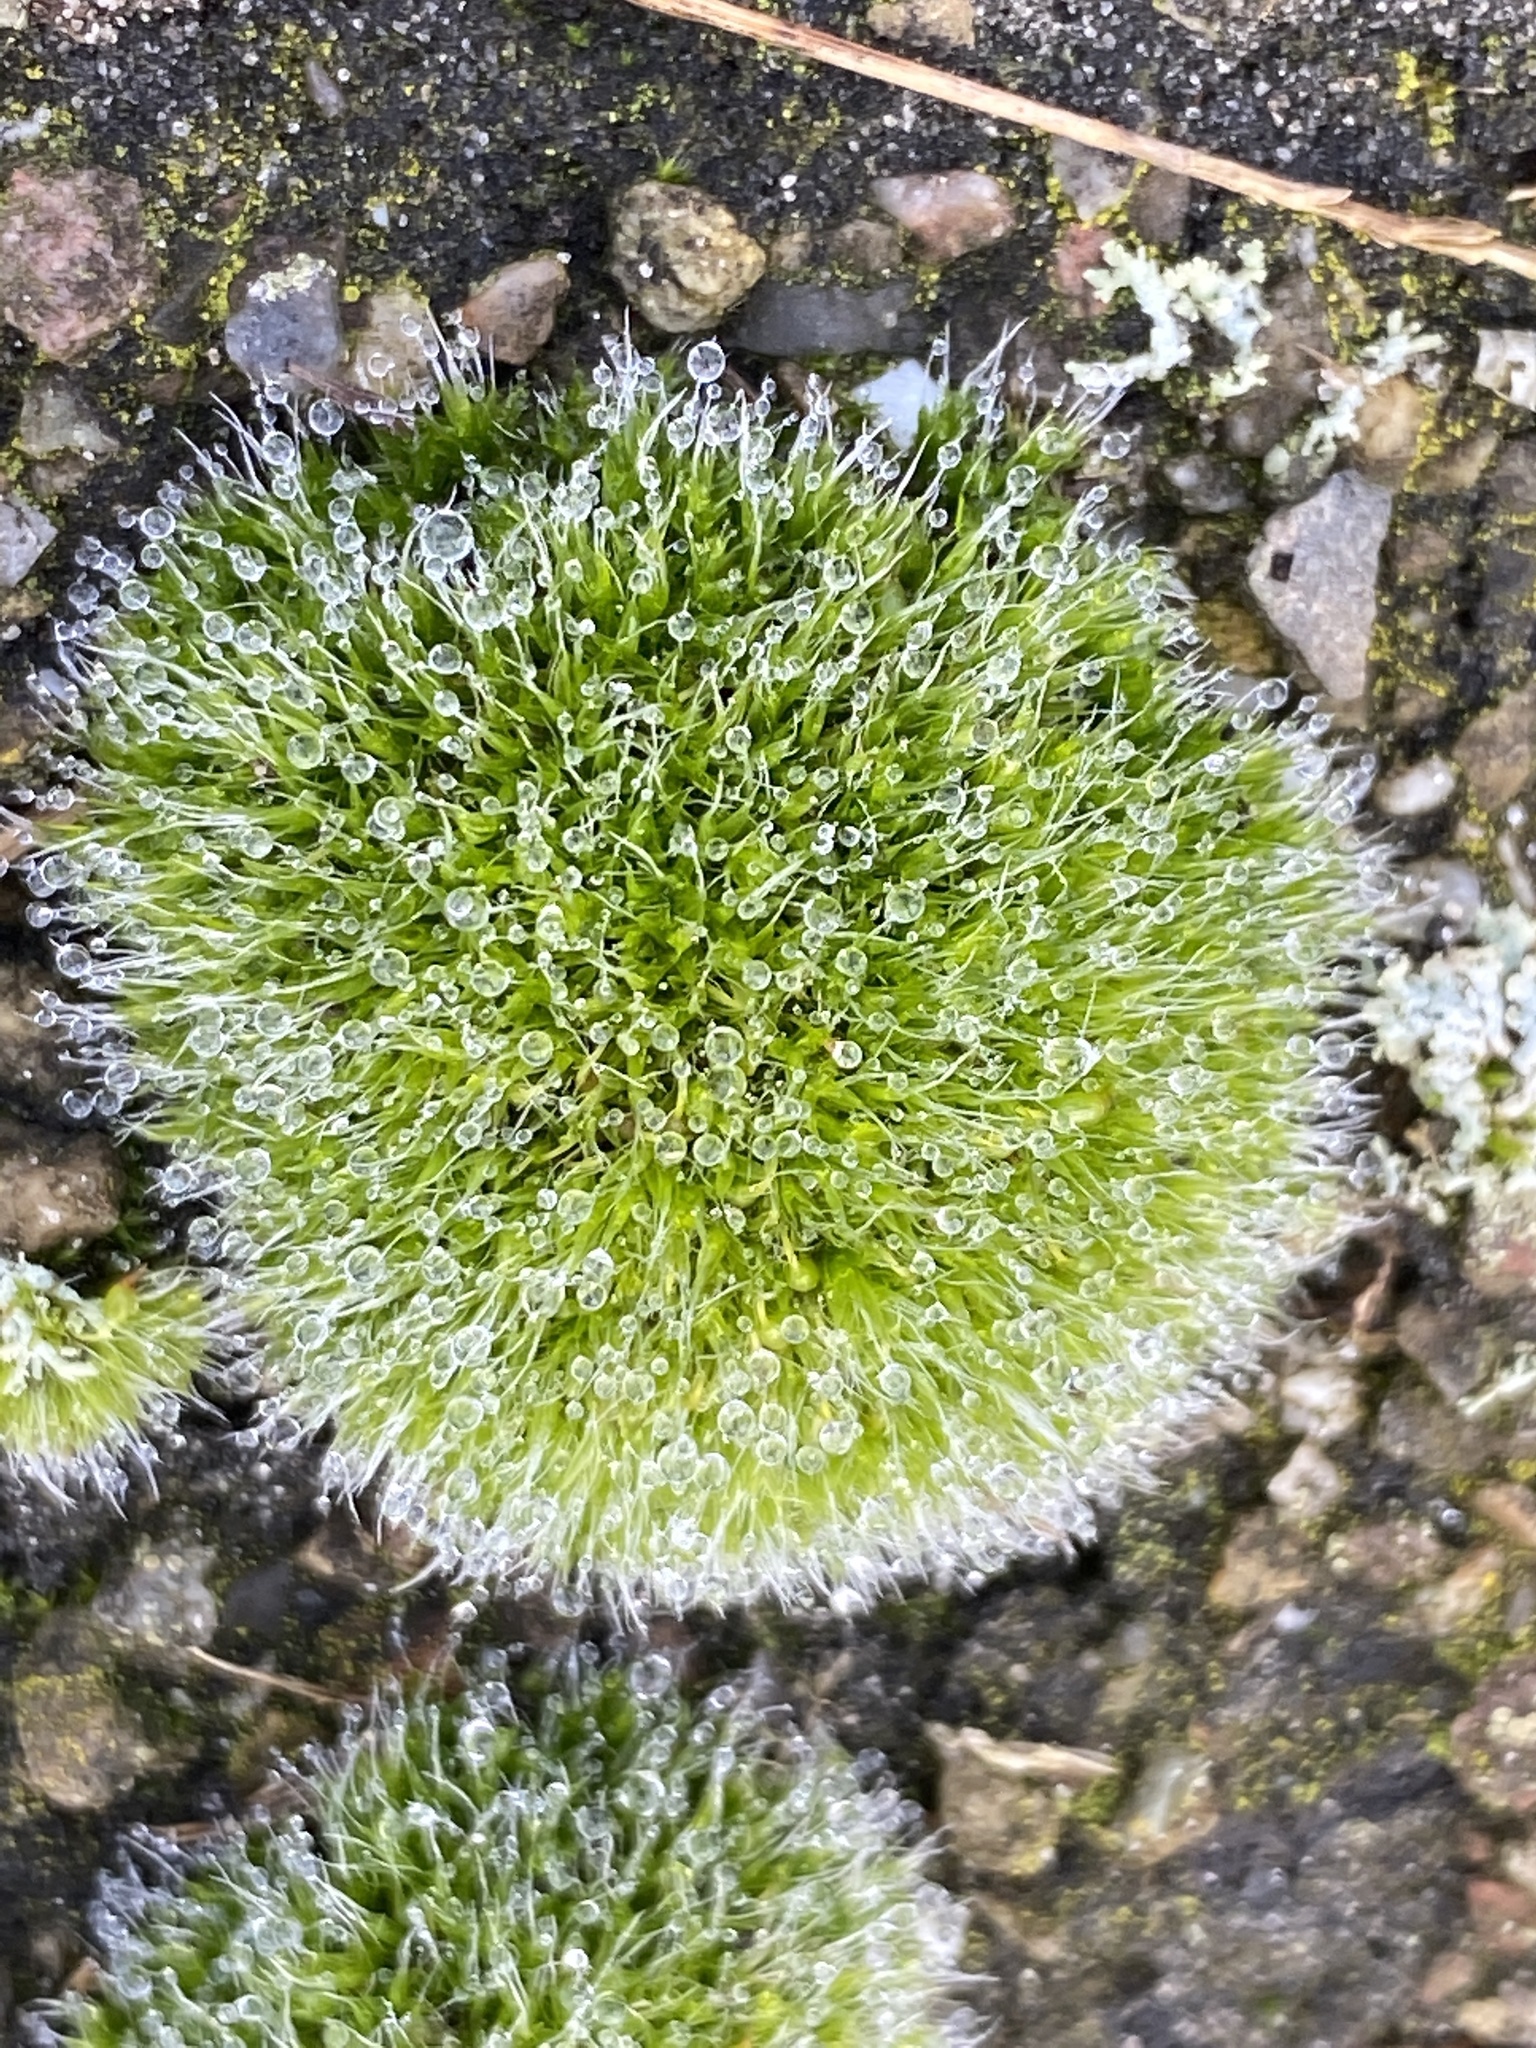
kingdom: Plantae
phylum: Bryophyta
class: Bryopsida
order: Grimmiales
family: Grimmiaceae
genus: Grimmia
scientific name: Grimmia pulvinata
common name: Grey-cushioned grimmia
